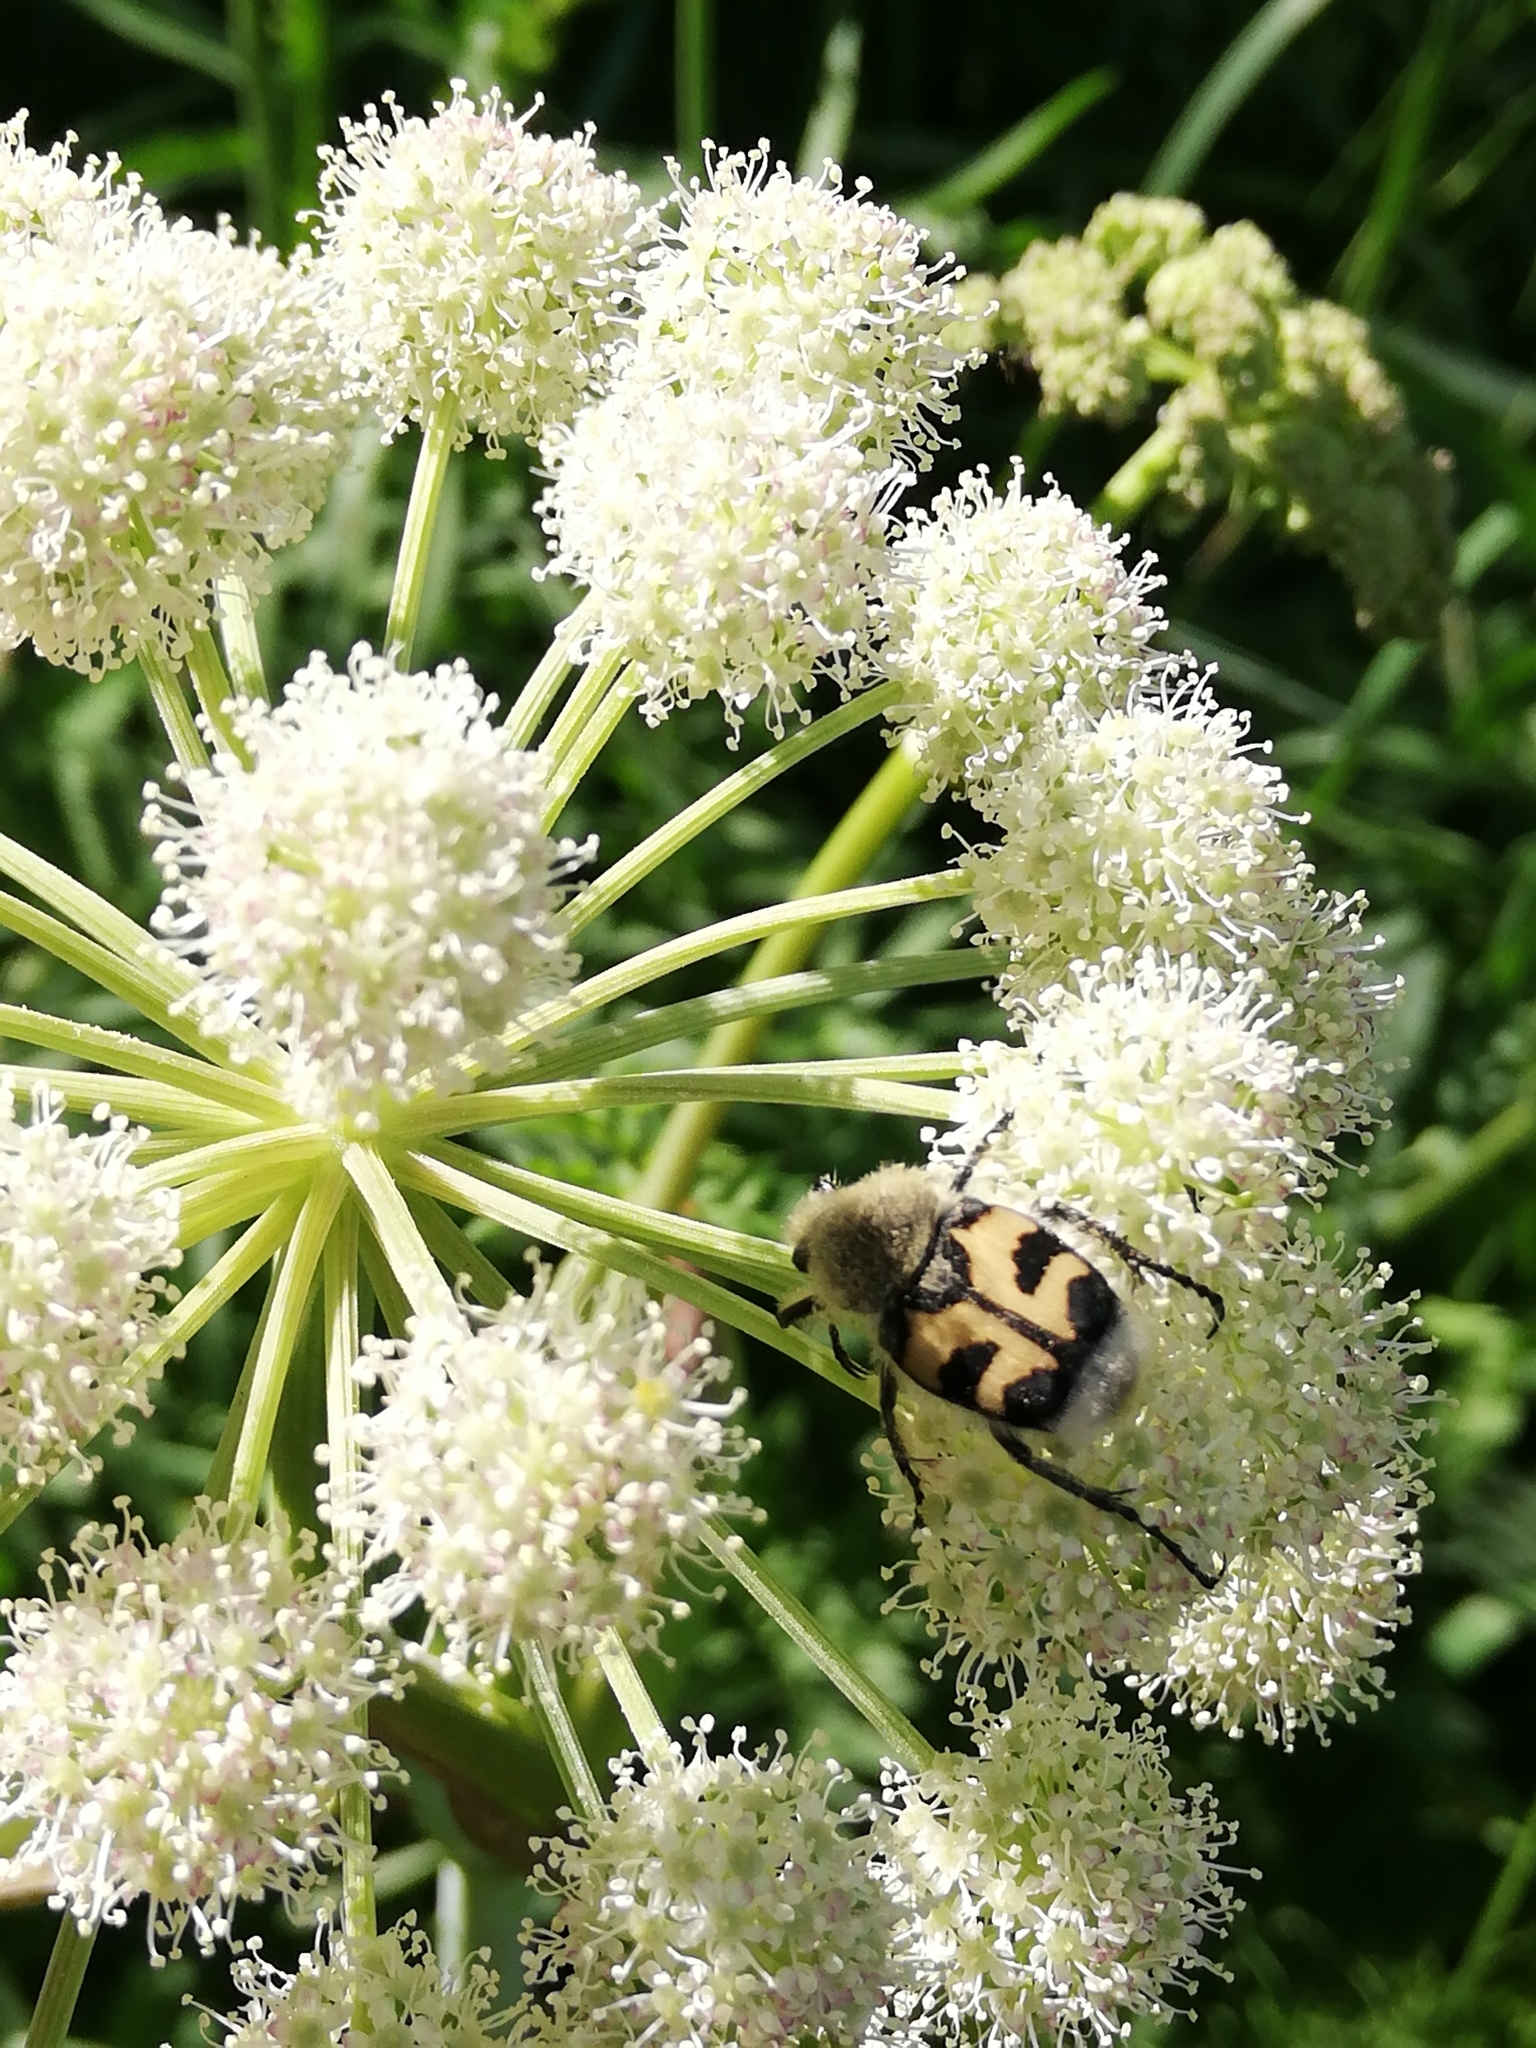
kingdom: Animalia
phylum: Arthropoda
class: Insecta
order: Coleoptera
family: Scarabaeidae
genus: Trichius
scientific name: Trichius fasciatus
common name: Bee beetle
